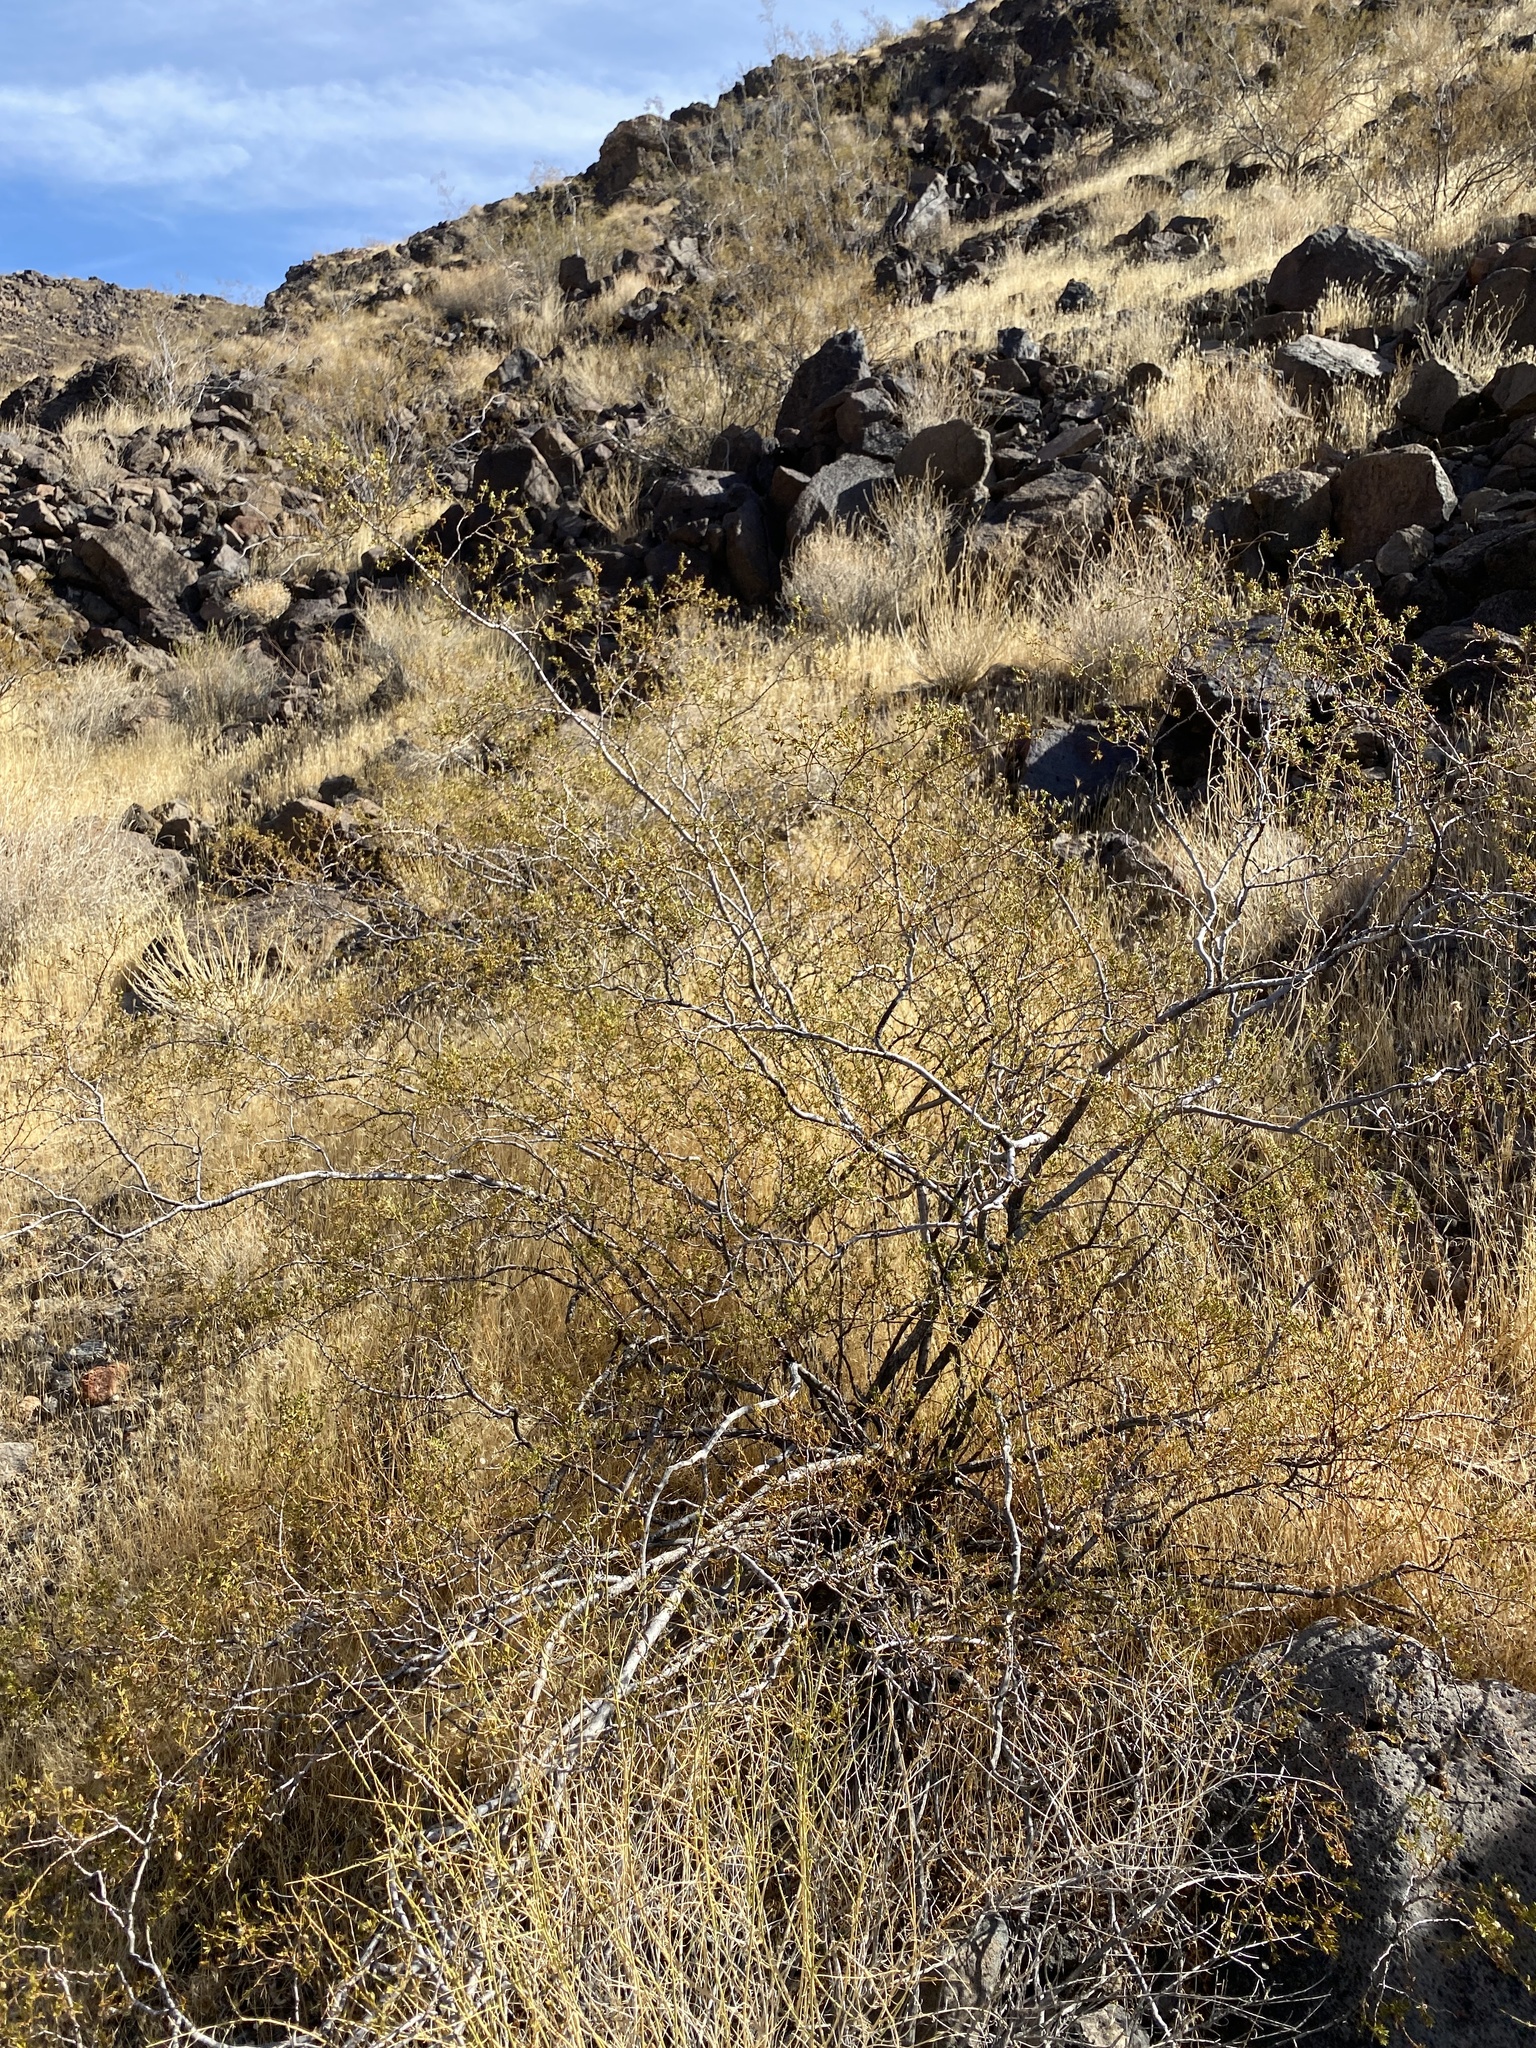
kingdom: Plantae
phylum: Tracheophyta
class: Magnoliopsida
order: Zygophyllales
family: Zygophyllaceae
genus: Larrea
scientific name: Larrea tridentata
